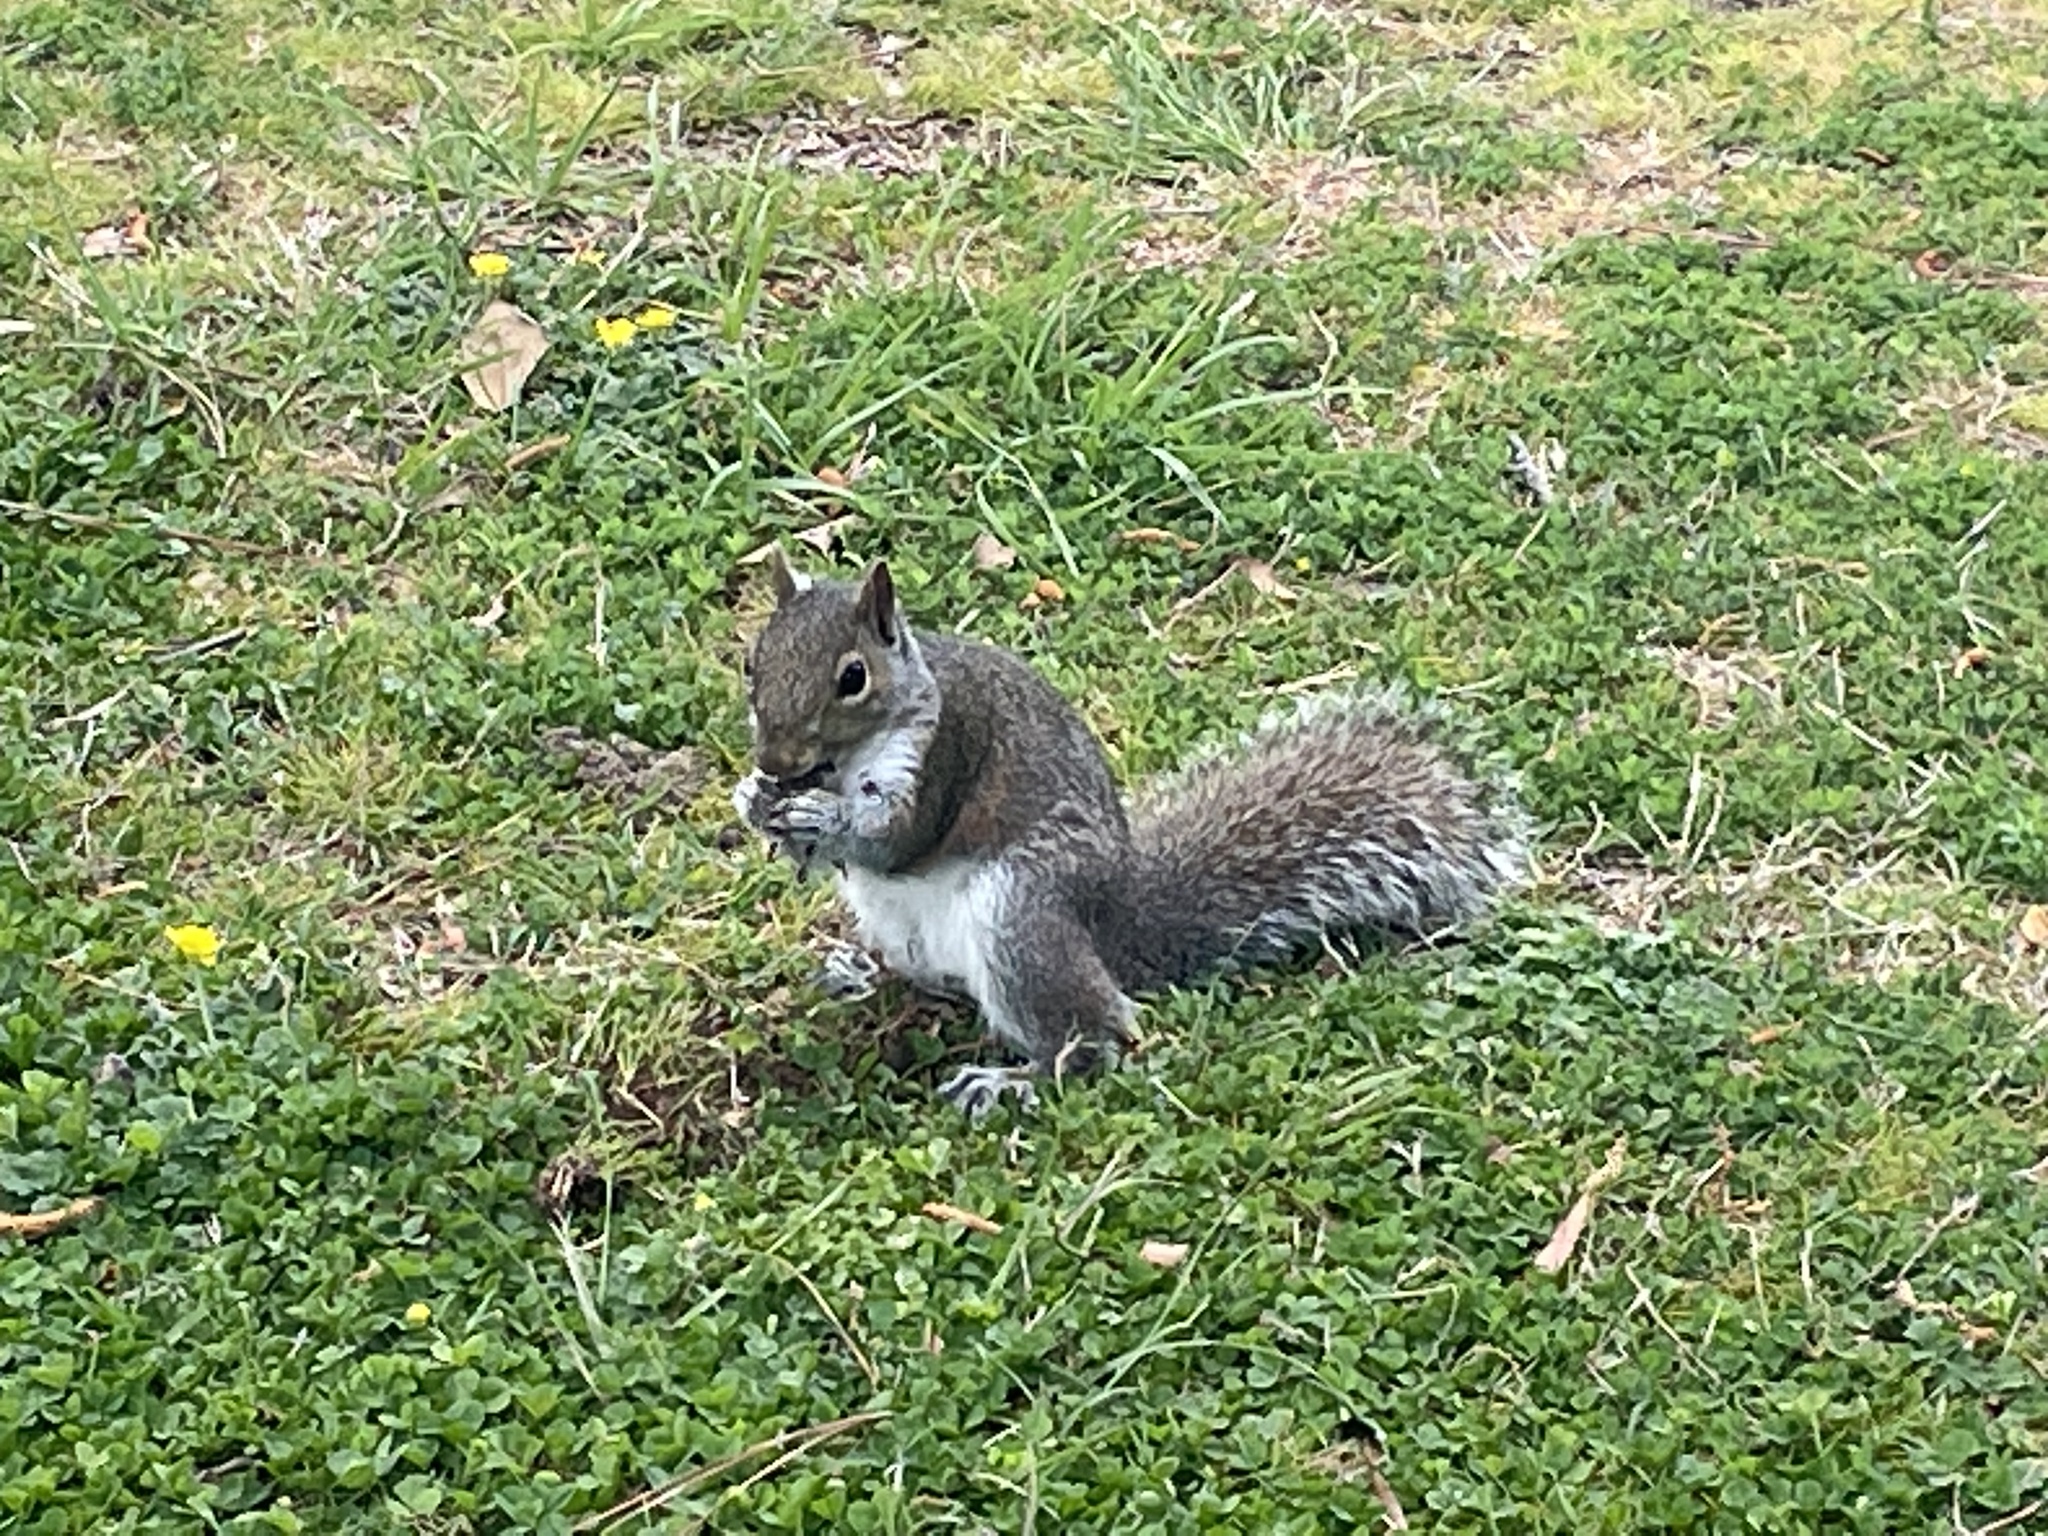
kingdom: Animalia
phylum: Chordata
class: Mammalia
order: Rodentia
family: Sciuridae
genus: Sciurus
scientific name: Sciurus carolinensis
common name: Eastern gray squirrel
